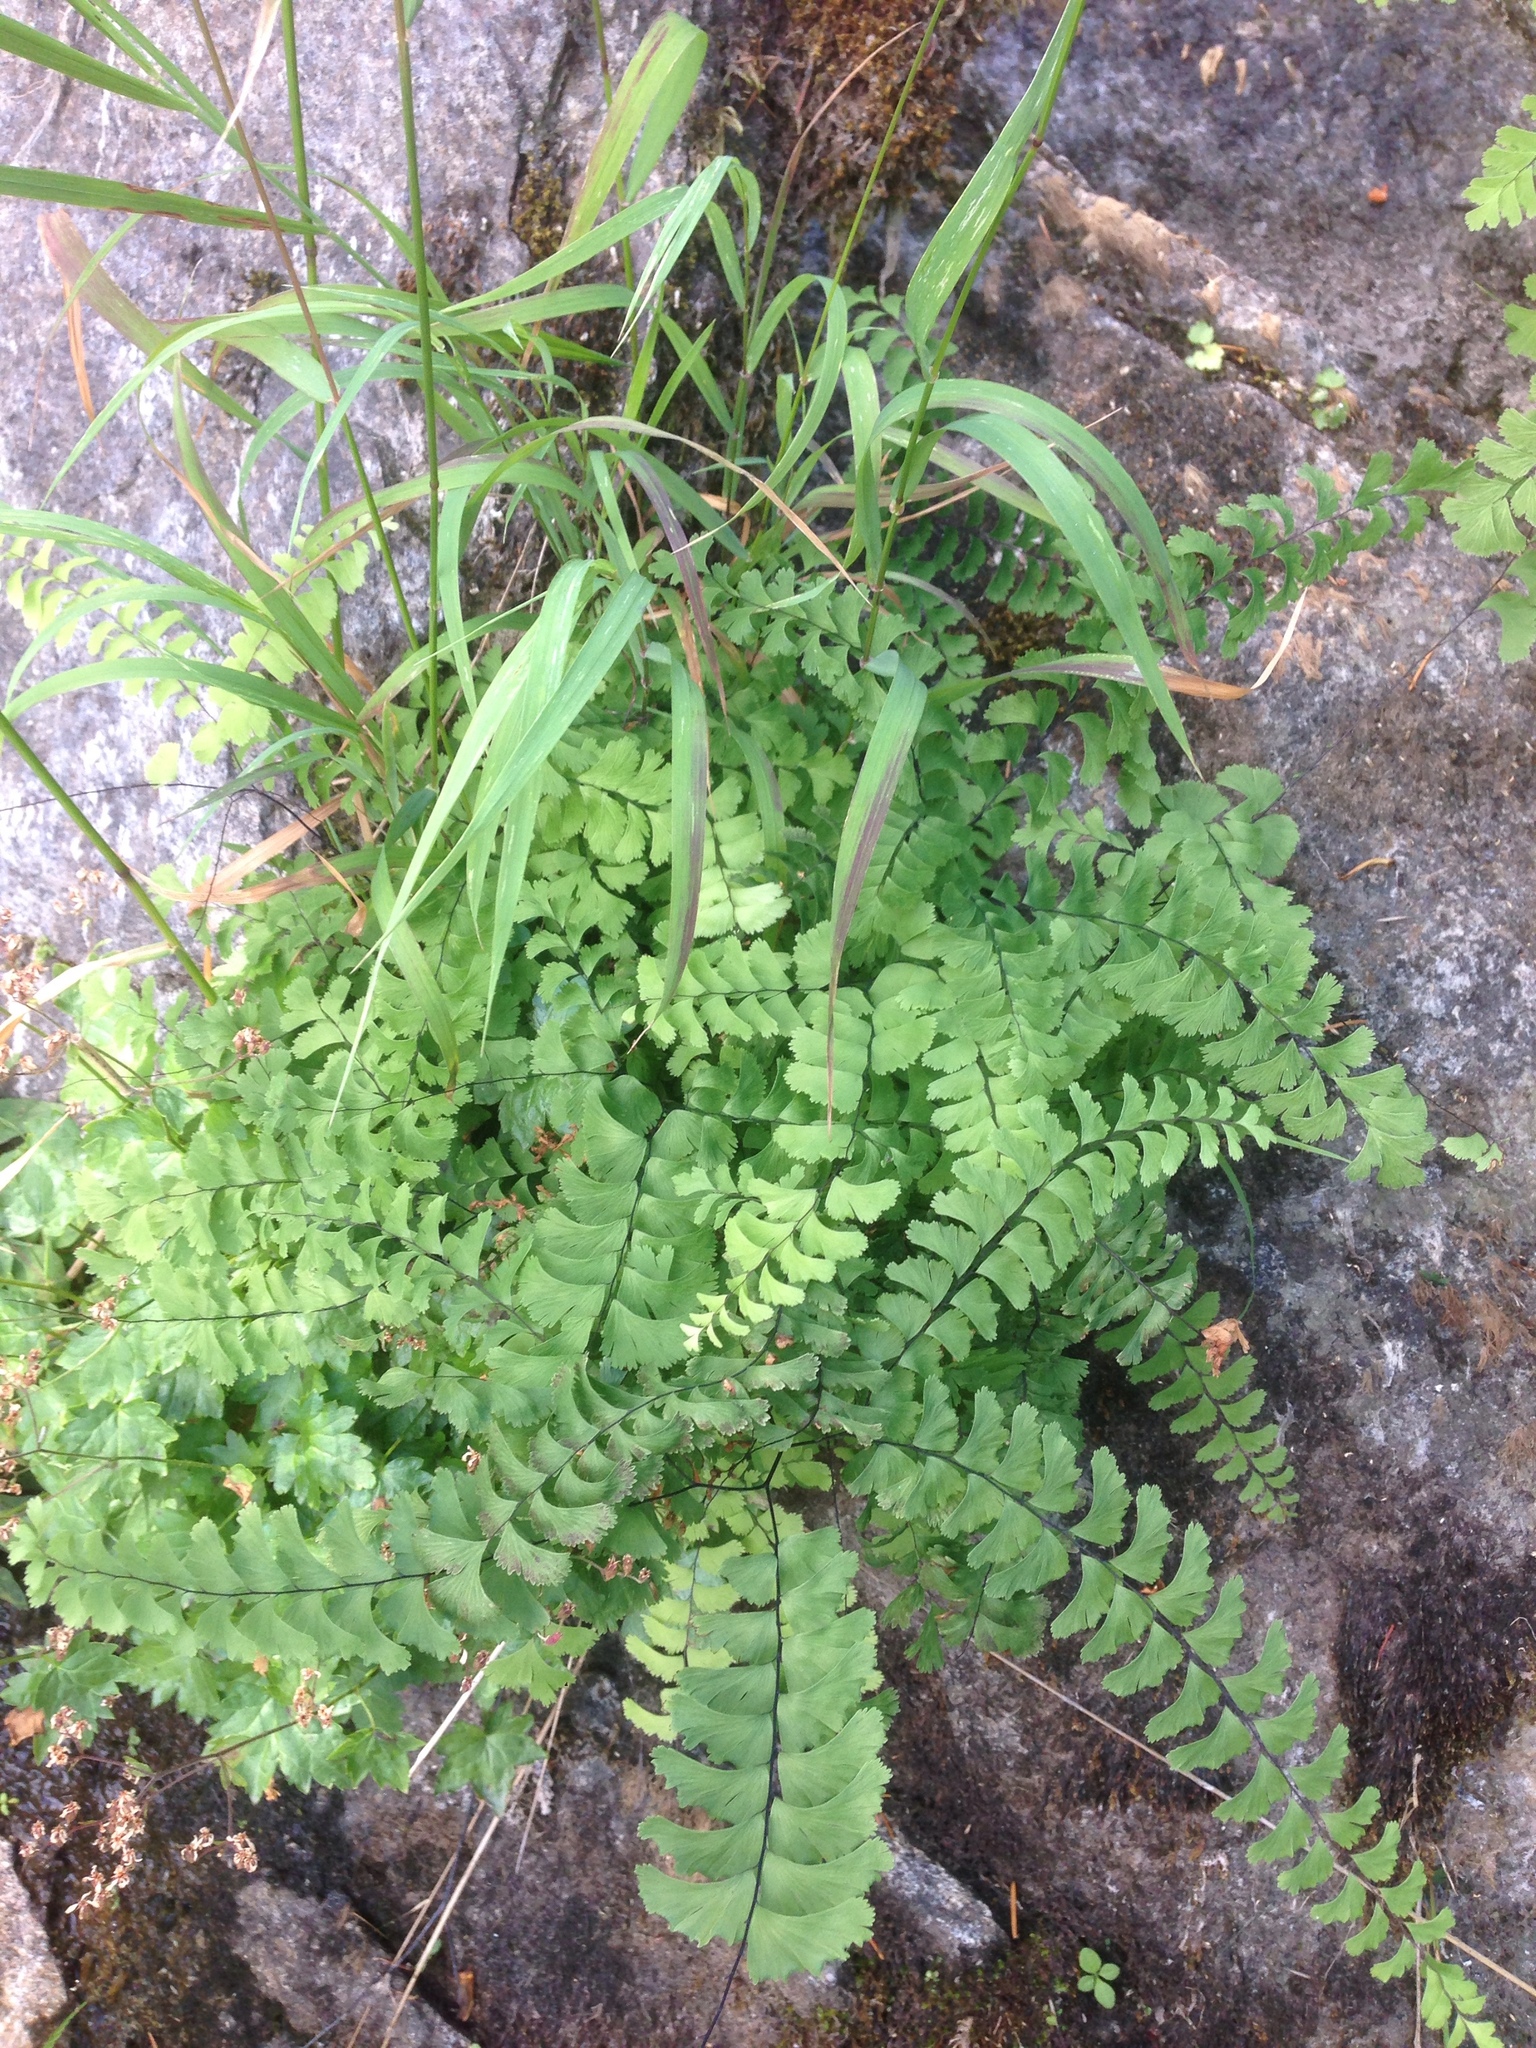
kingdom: Plantae
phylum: Tracheophyta
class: Polypodiopsida
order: Polypodiales
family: Pteridaceae
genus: Adiantum
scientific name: Adiantum aleuticum
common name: Aleutian maidenhair fern
